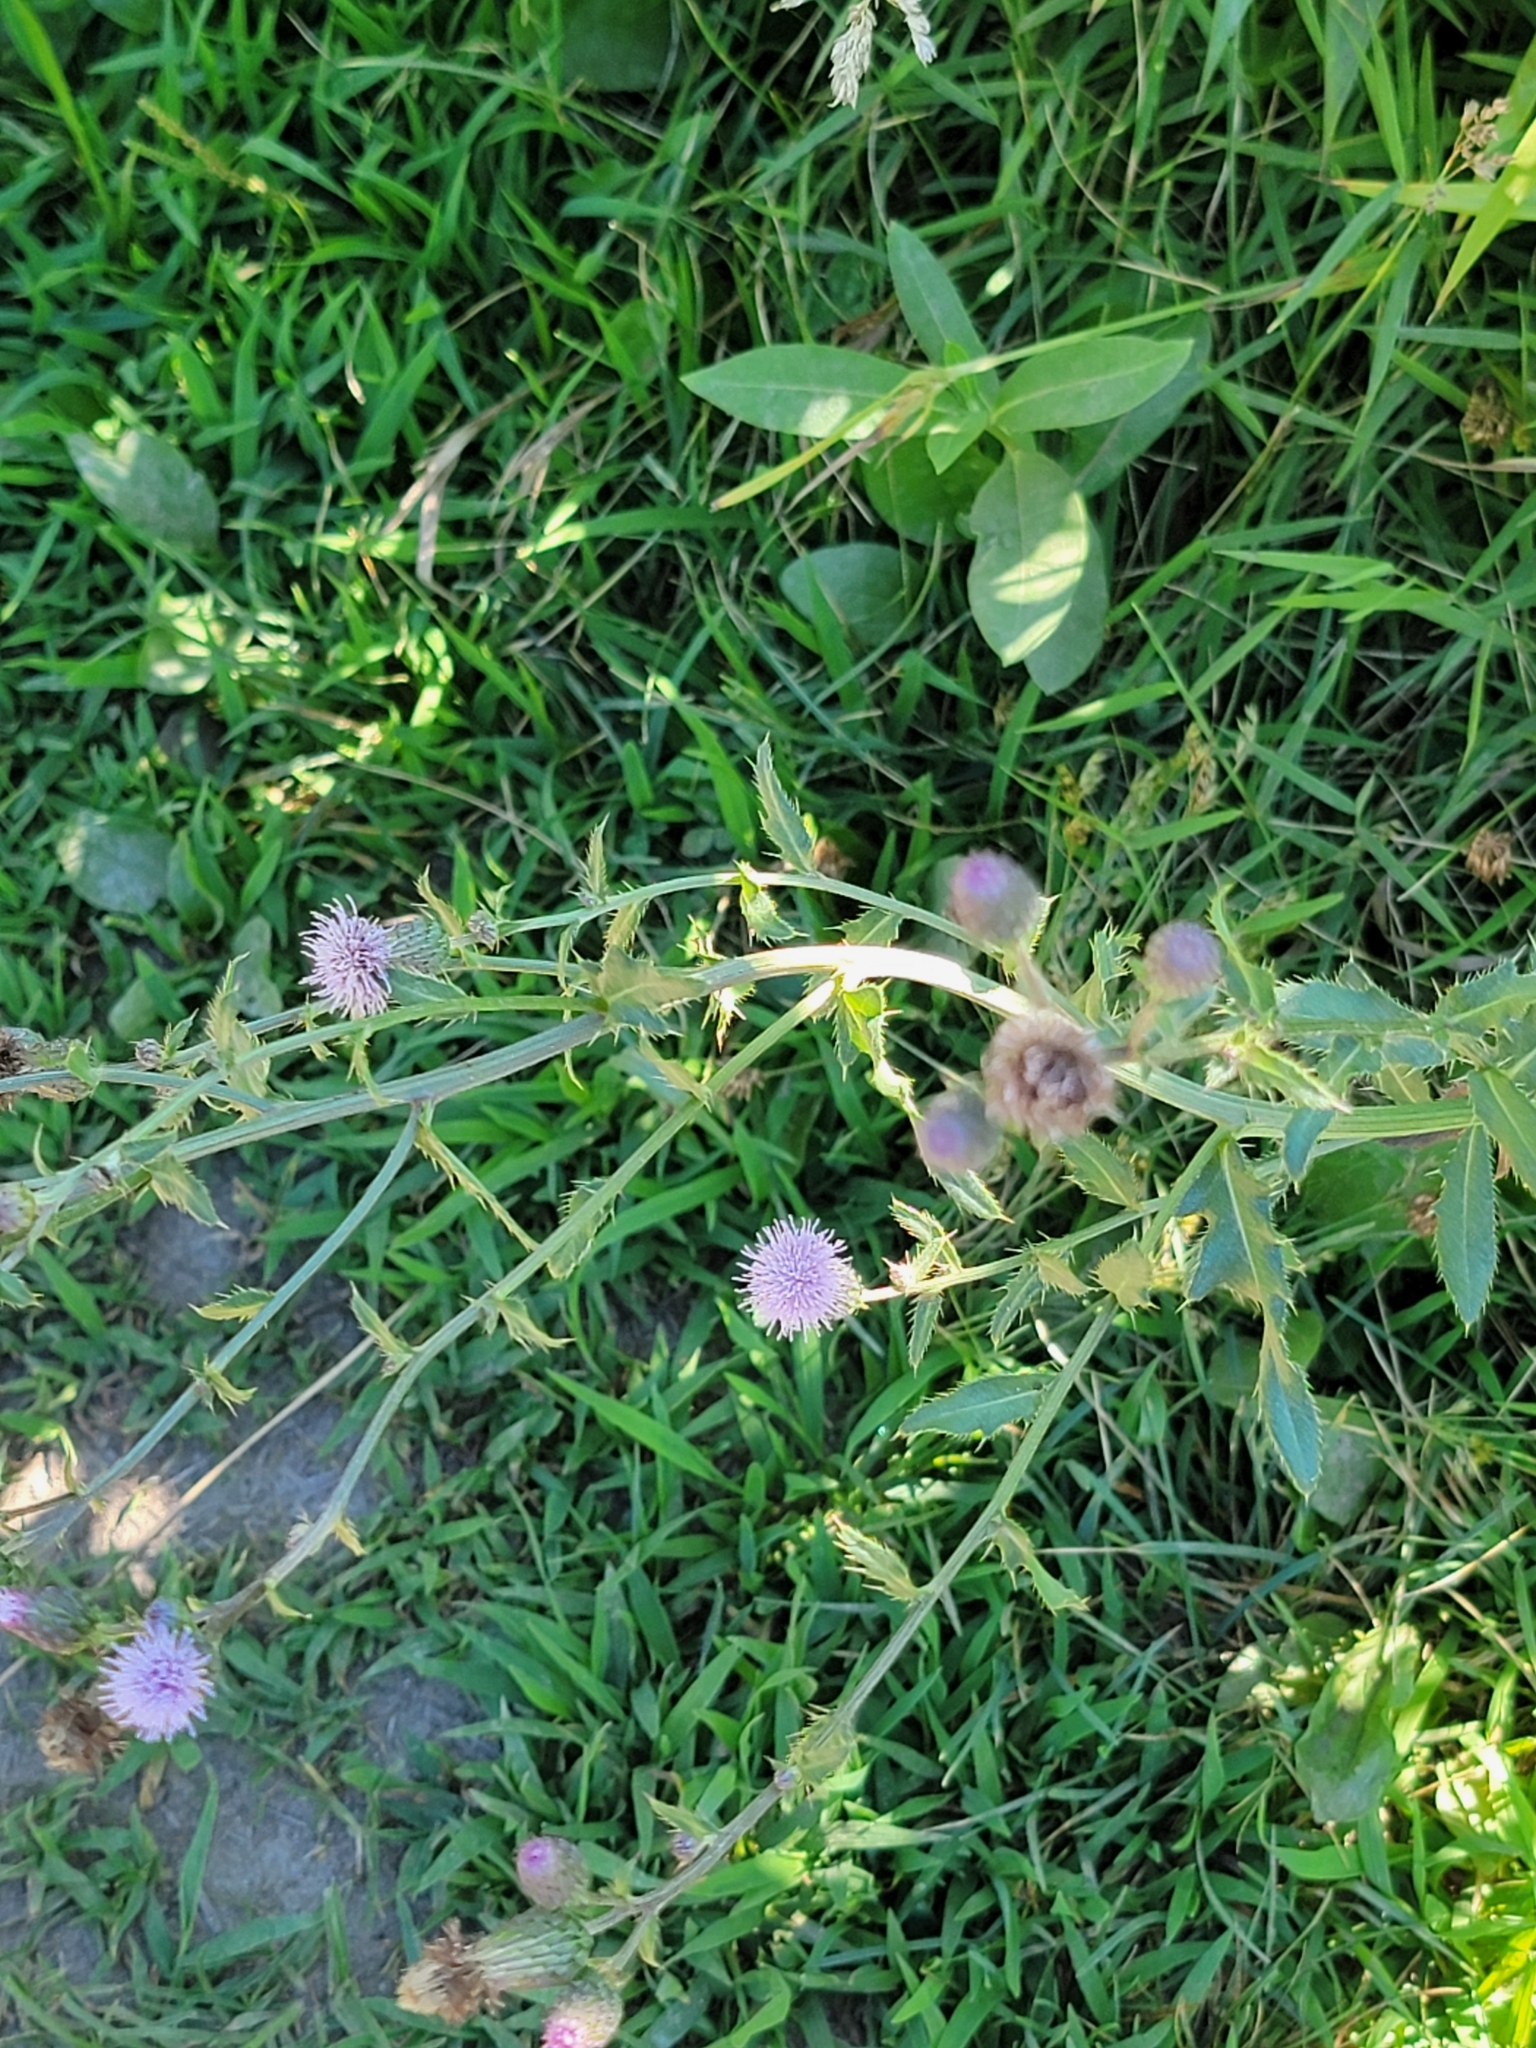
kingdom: Plantae
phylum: Tracheophyta
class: Magnoliopsida
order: Asterales
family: Asteraceae
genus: Cirsium
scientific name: Cirsium arvense
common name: Creeping thistle
